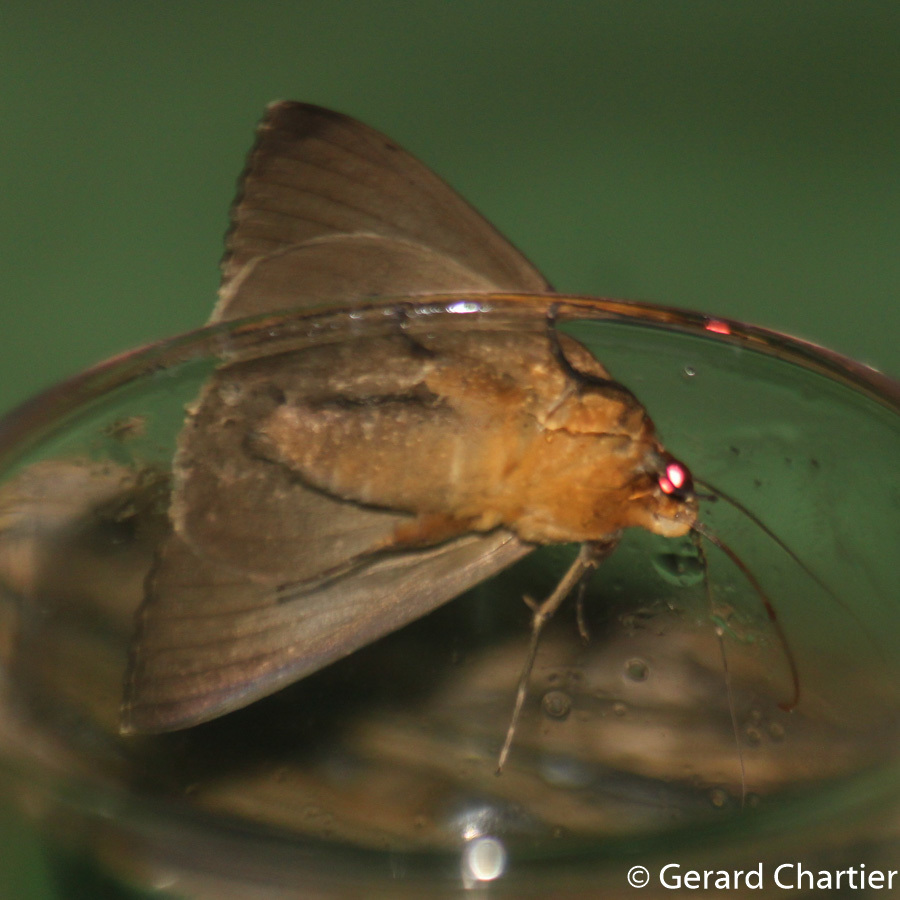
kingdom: Animalia
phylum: Arthropoda
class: Insecta
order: Lepidoptera
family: Erebidae
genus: Artena
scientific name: Artena rubida
